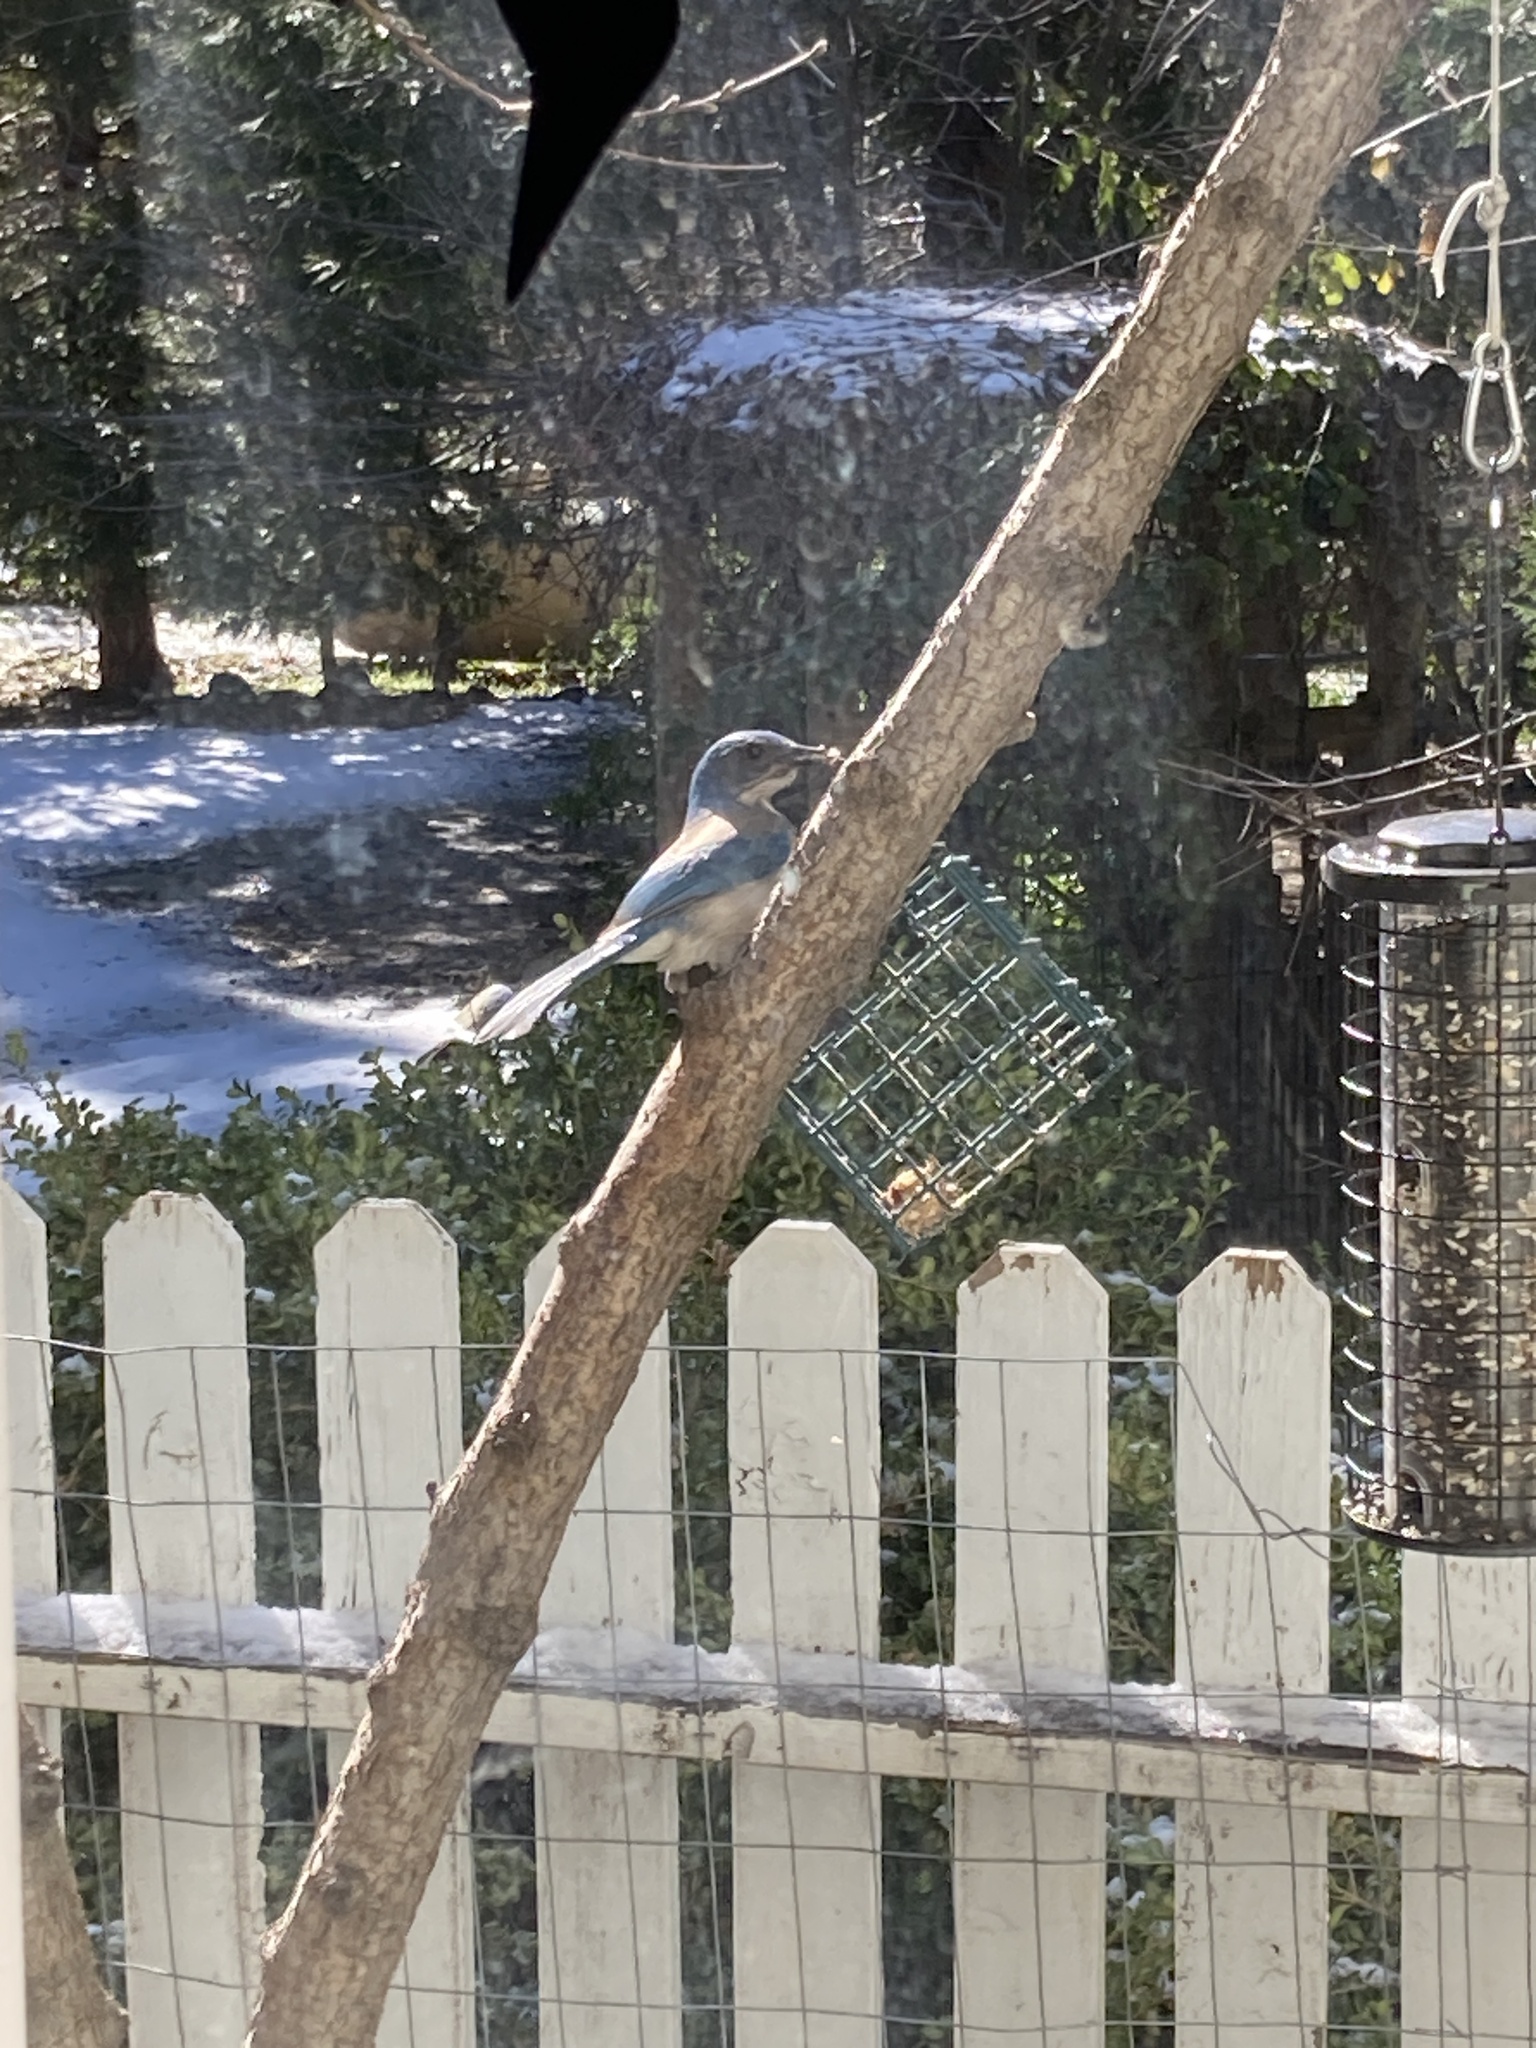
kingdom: Animalia
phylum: Chordata
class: Aves
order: Passeriformes
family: Corvidae
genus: Aphelocoma
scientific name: Aphelocoma californica
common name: California scrub-jay
